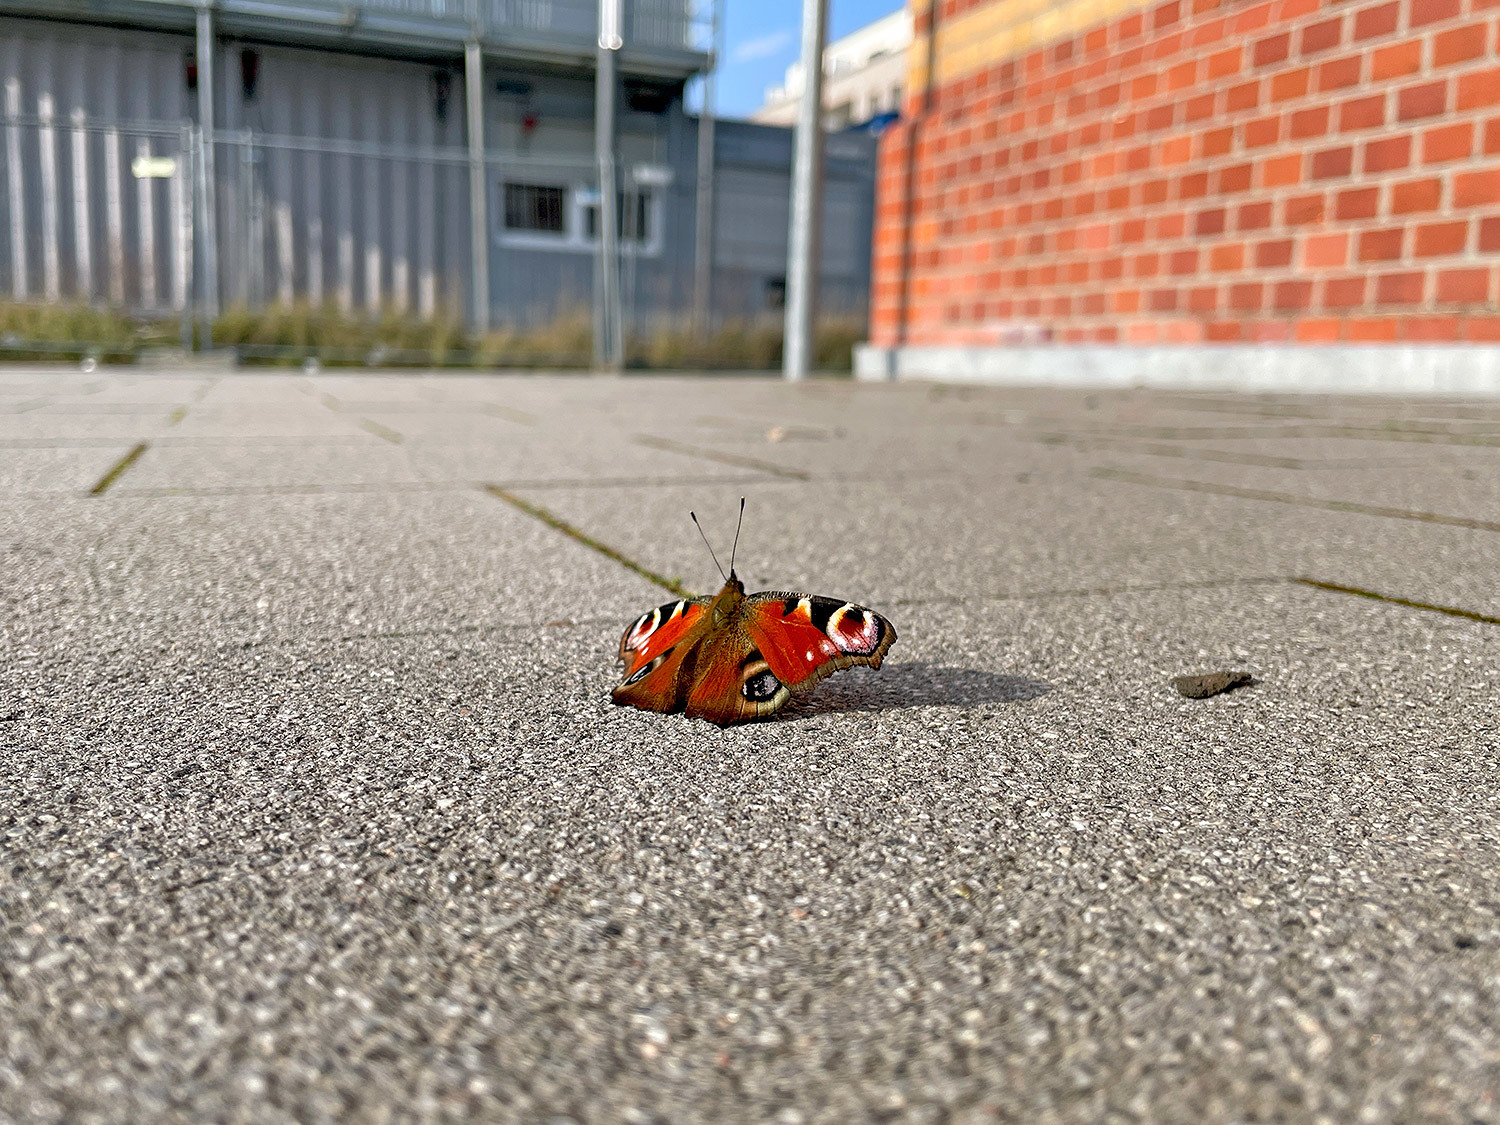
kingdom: Animalia
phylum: Arthropoda
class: Insecta
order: Lepidoptera
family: Nymphalidae
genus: Aglais
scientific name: Aglais io
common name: Peacock
